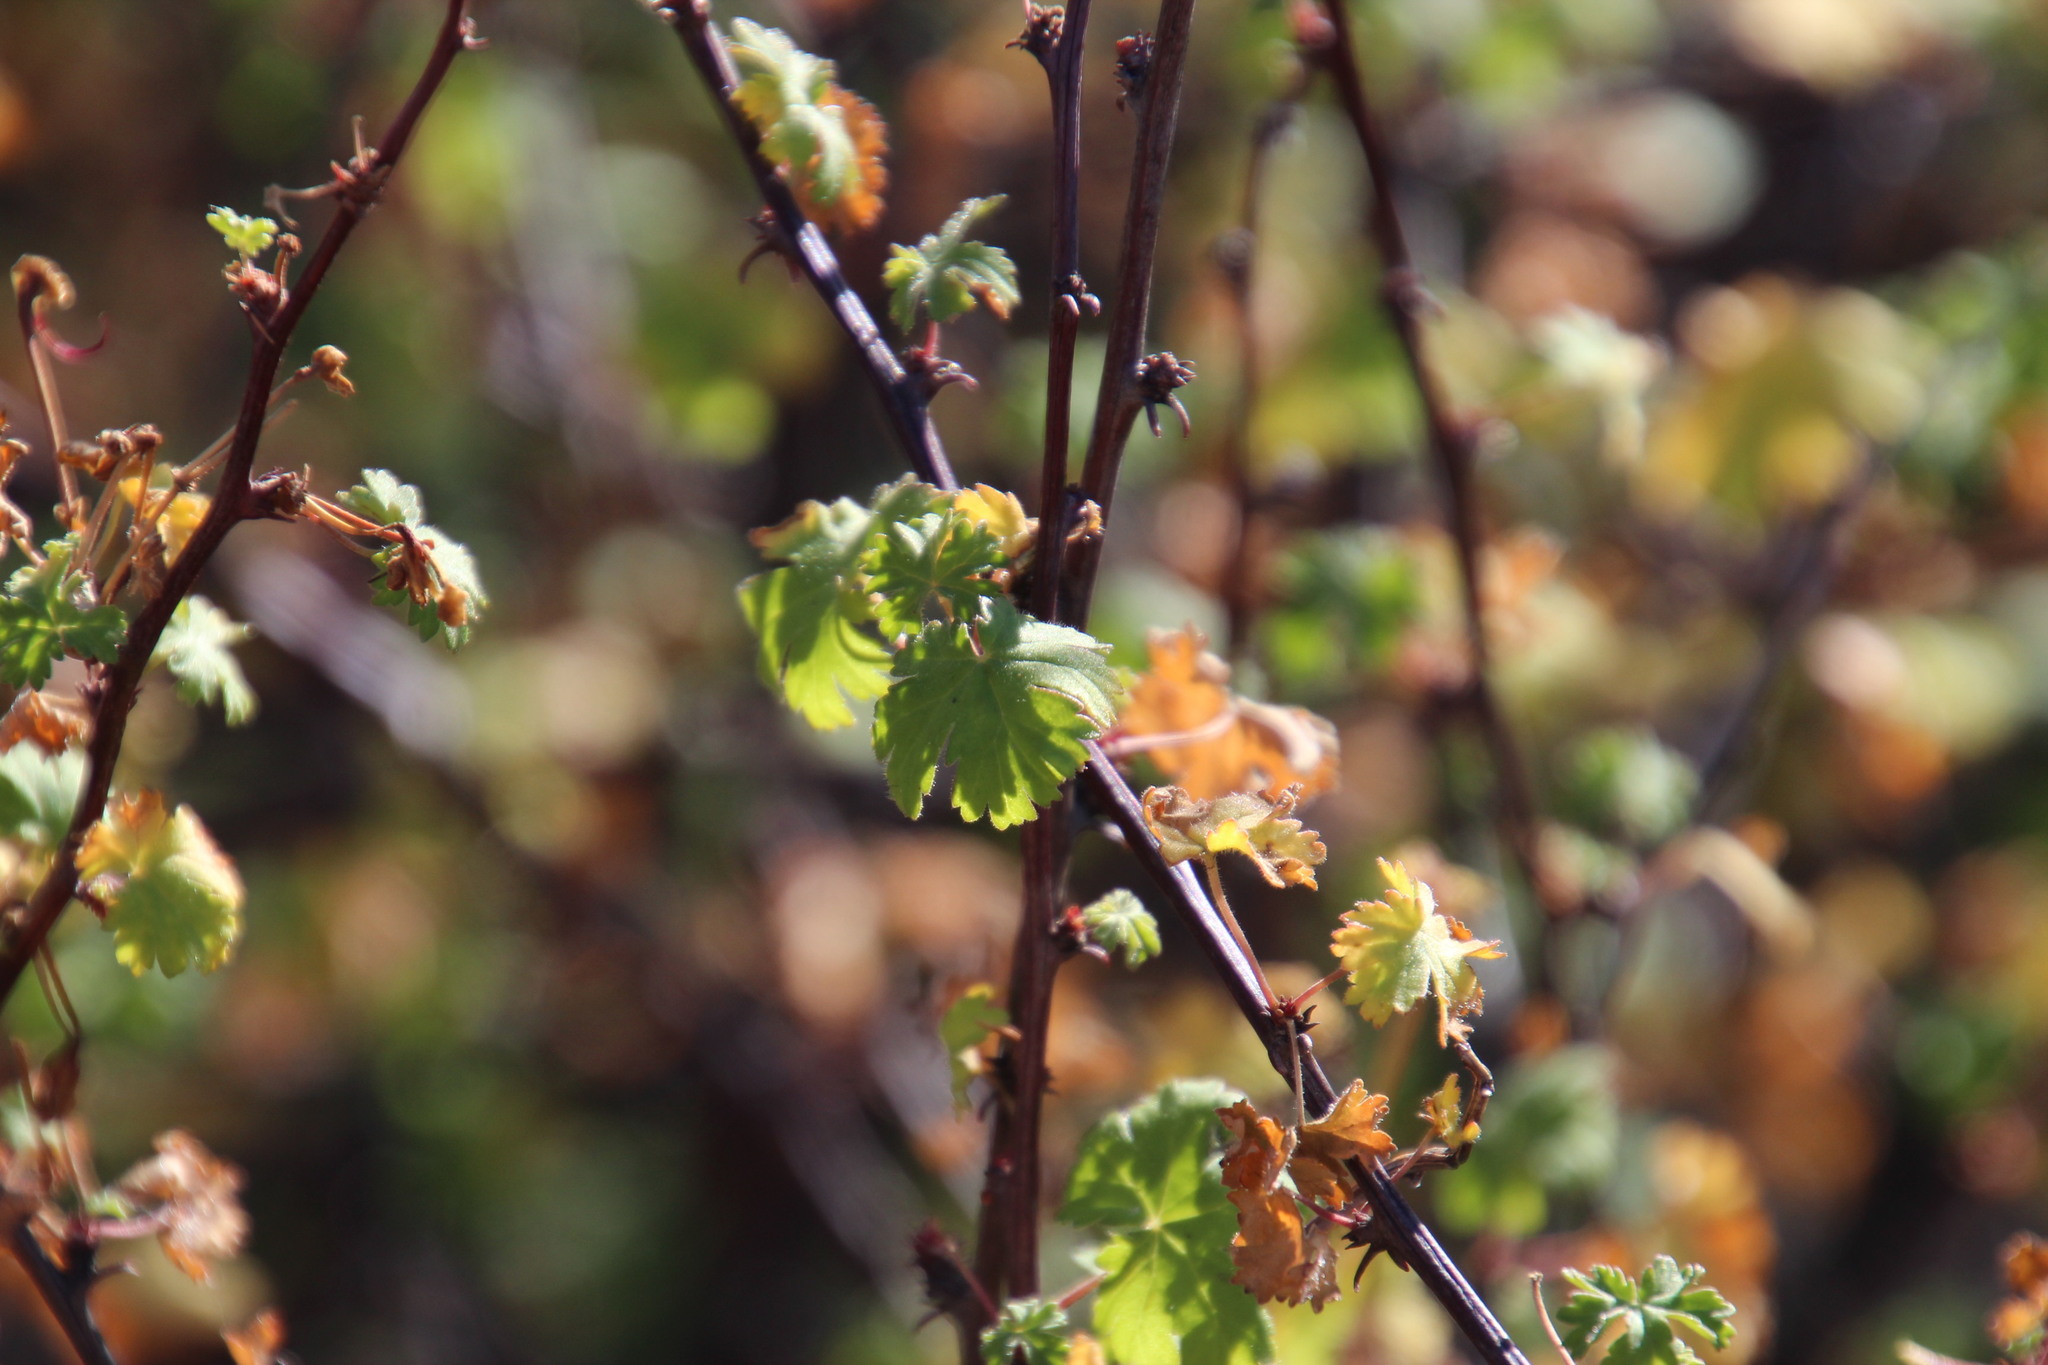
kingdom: Plantae
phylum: Tracheophyta
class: Magnoliopsida
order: Geraniales
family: Geraniaceae
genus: Pelargonium
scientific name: Pelargonium antidysentericum
